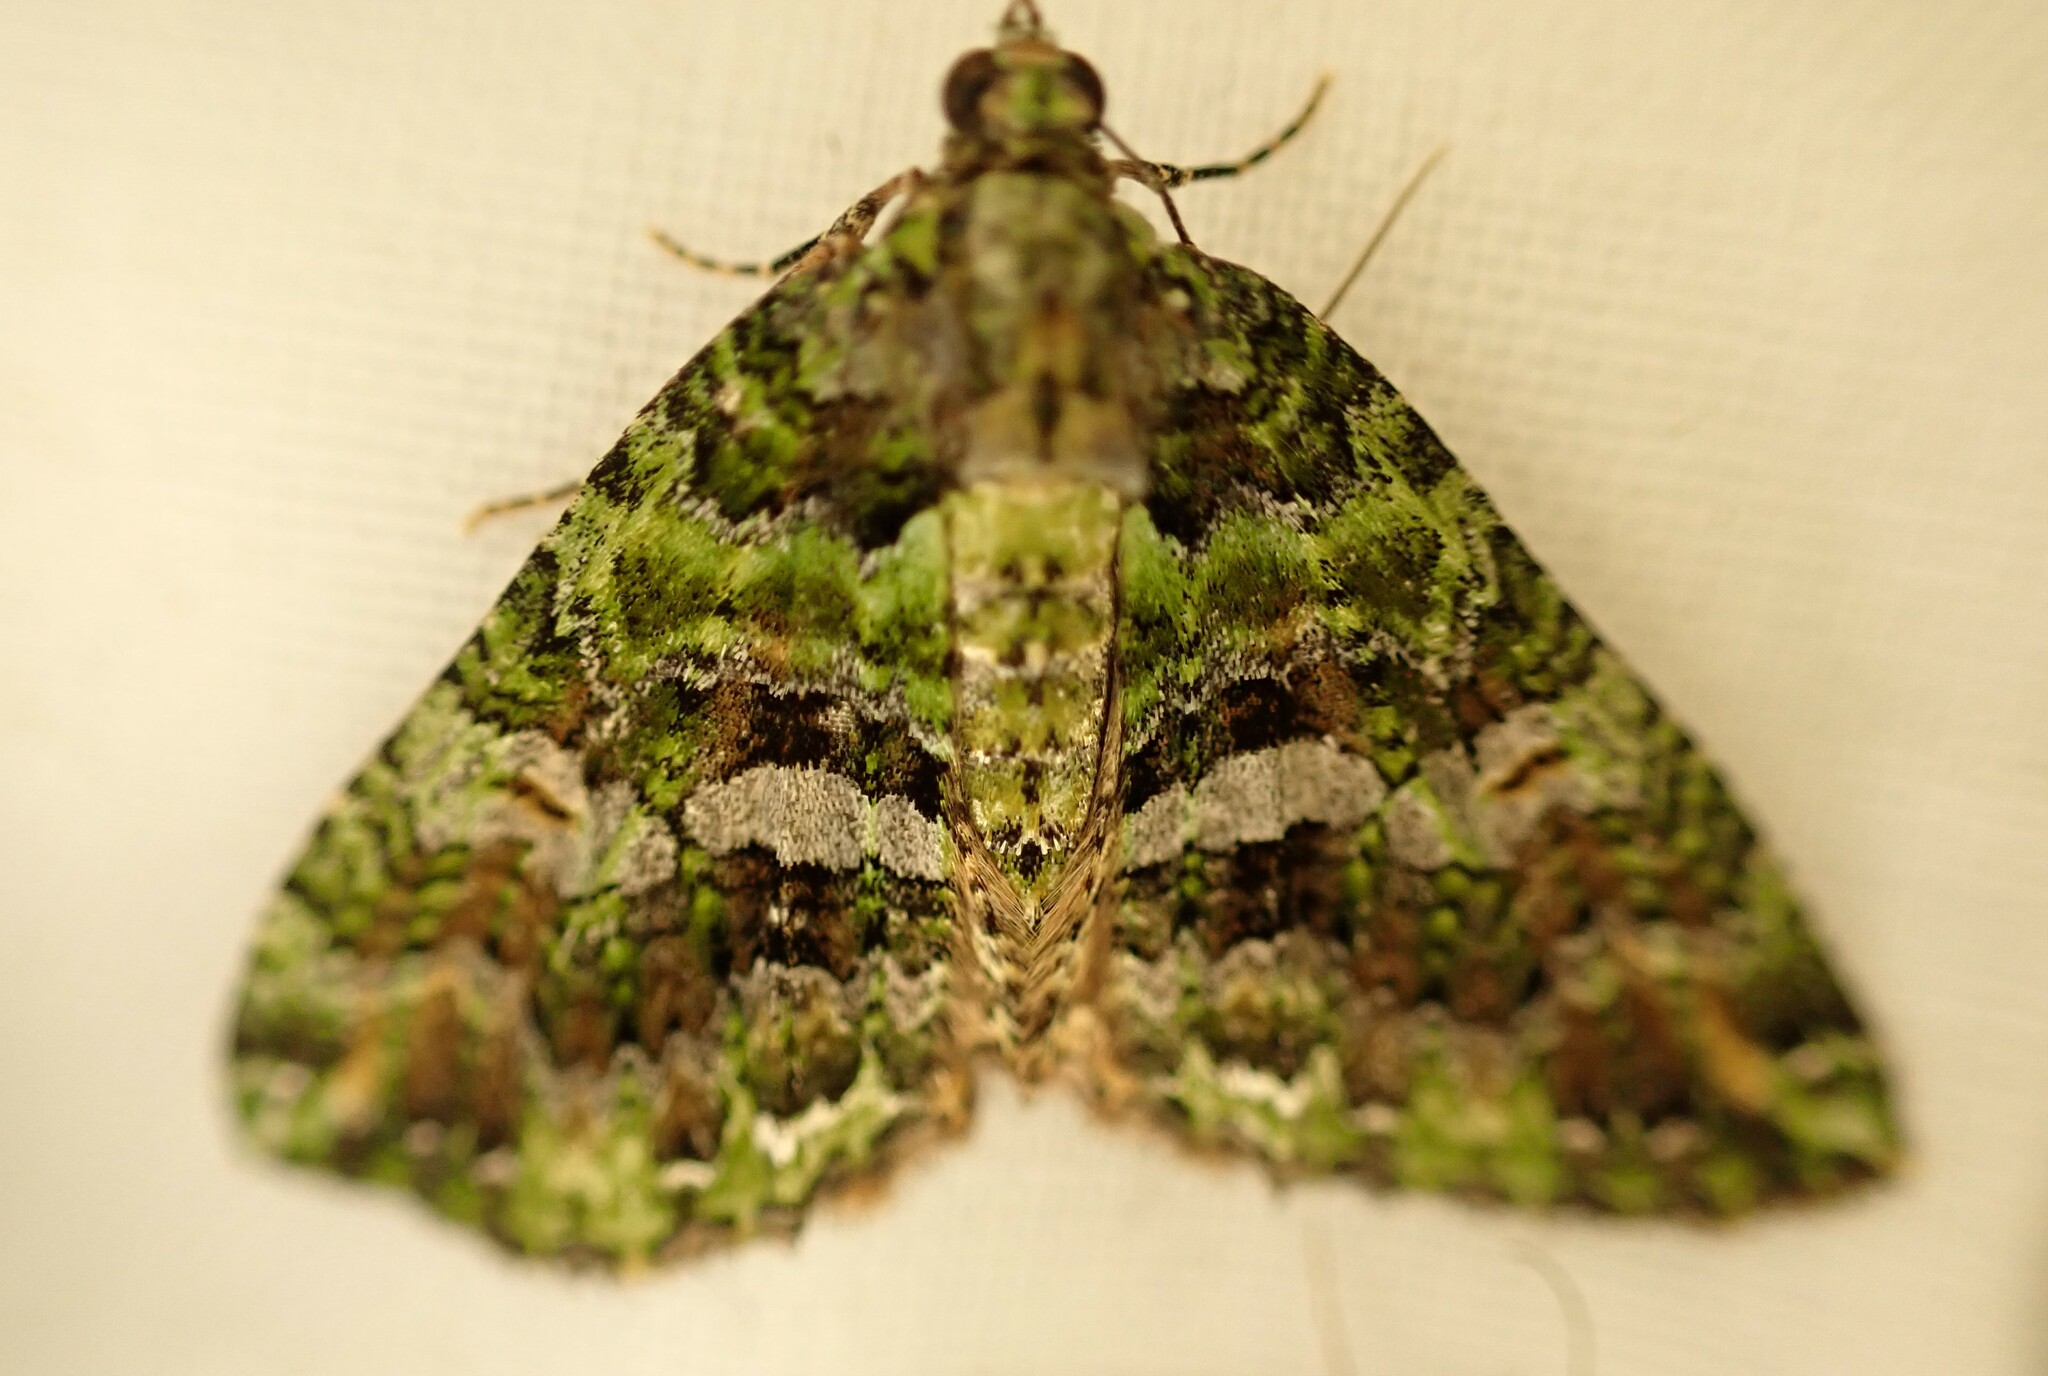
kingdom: Animalia
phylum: Arthropoda
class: Insecta
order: Lepidoptera
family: Geometridae
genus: Austrocidaria
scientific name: Austrocidaria similata
